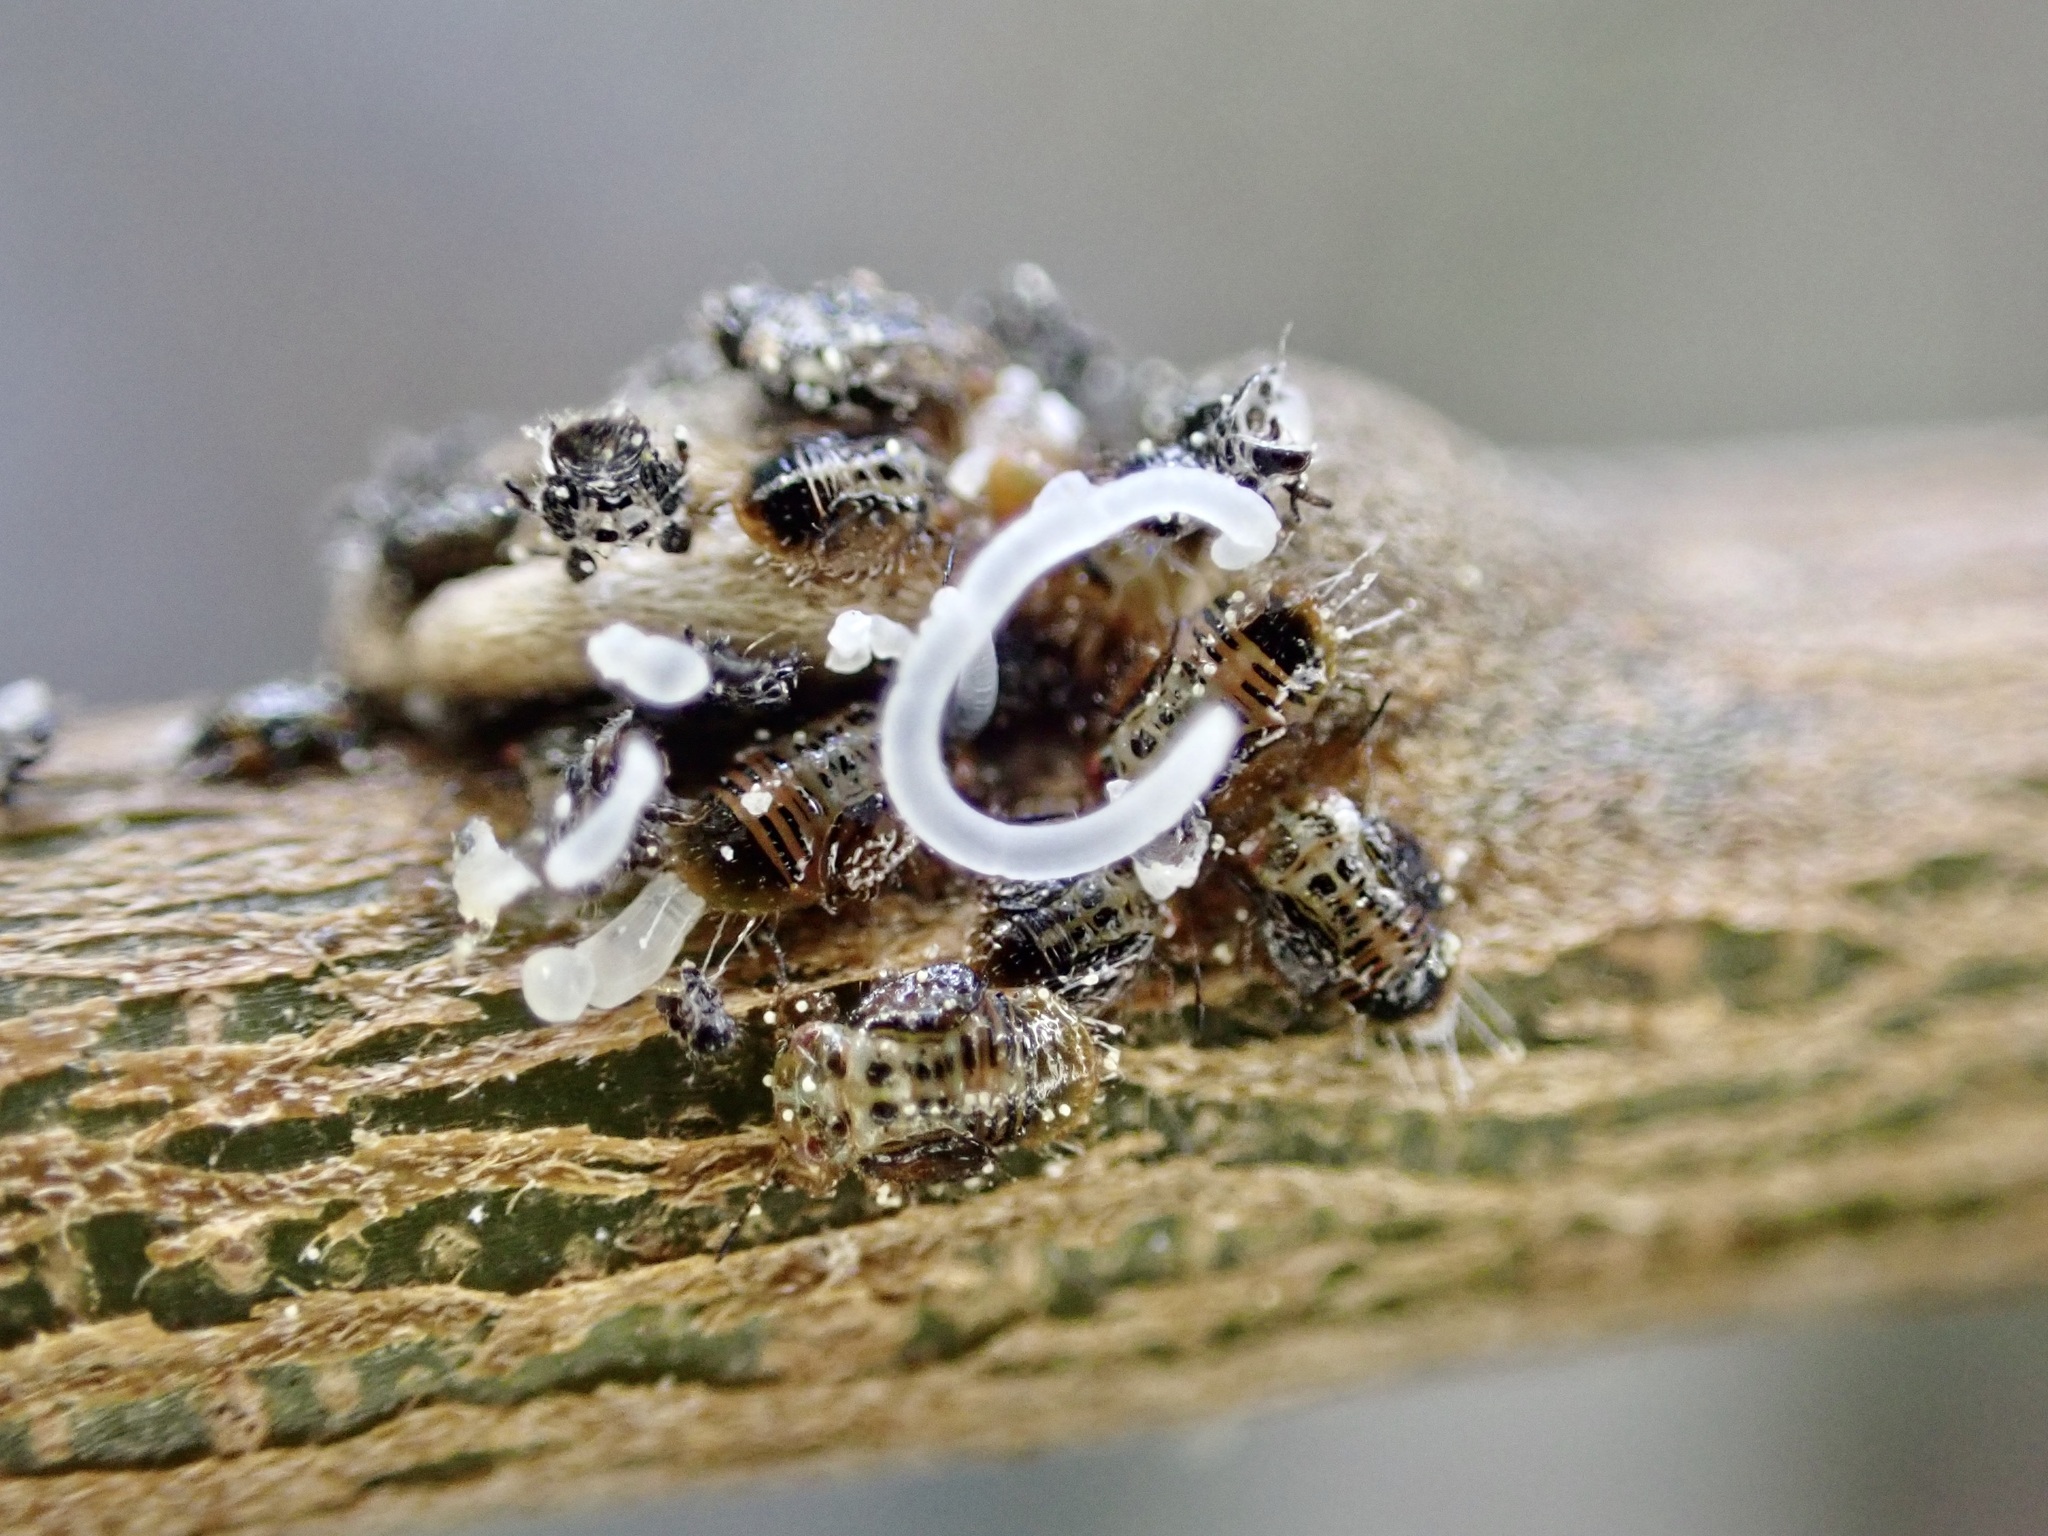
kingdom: Animalia
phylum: Arthropoda
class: Insecta
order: Hemiptera
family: Psyllidae
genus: Acizzia
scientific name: Acizzia apicalis
